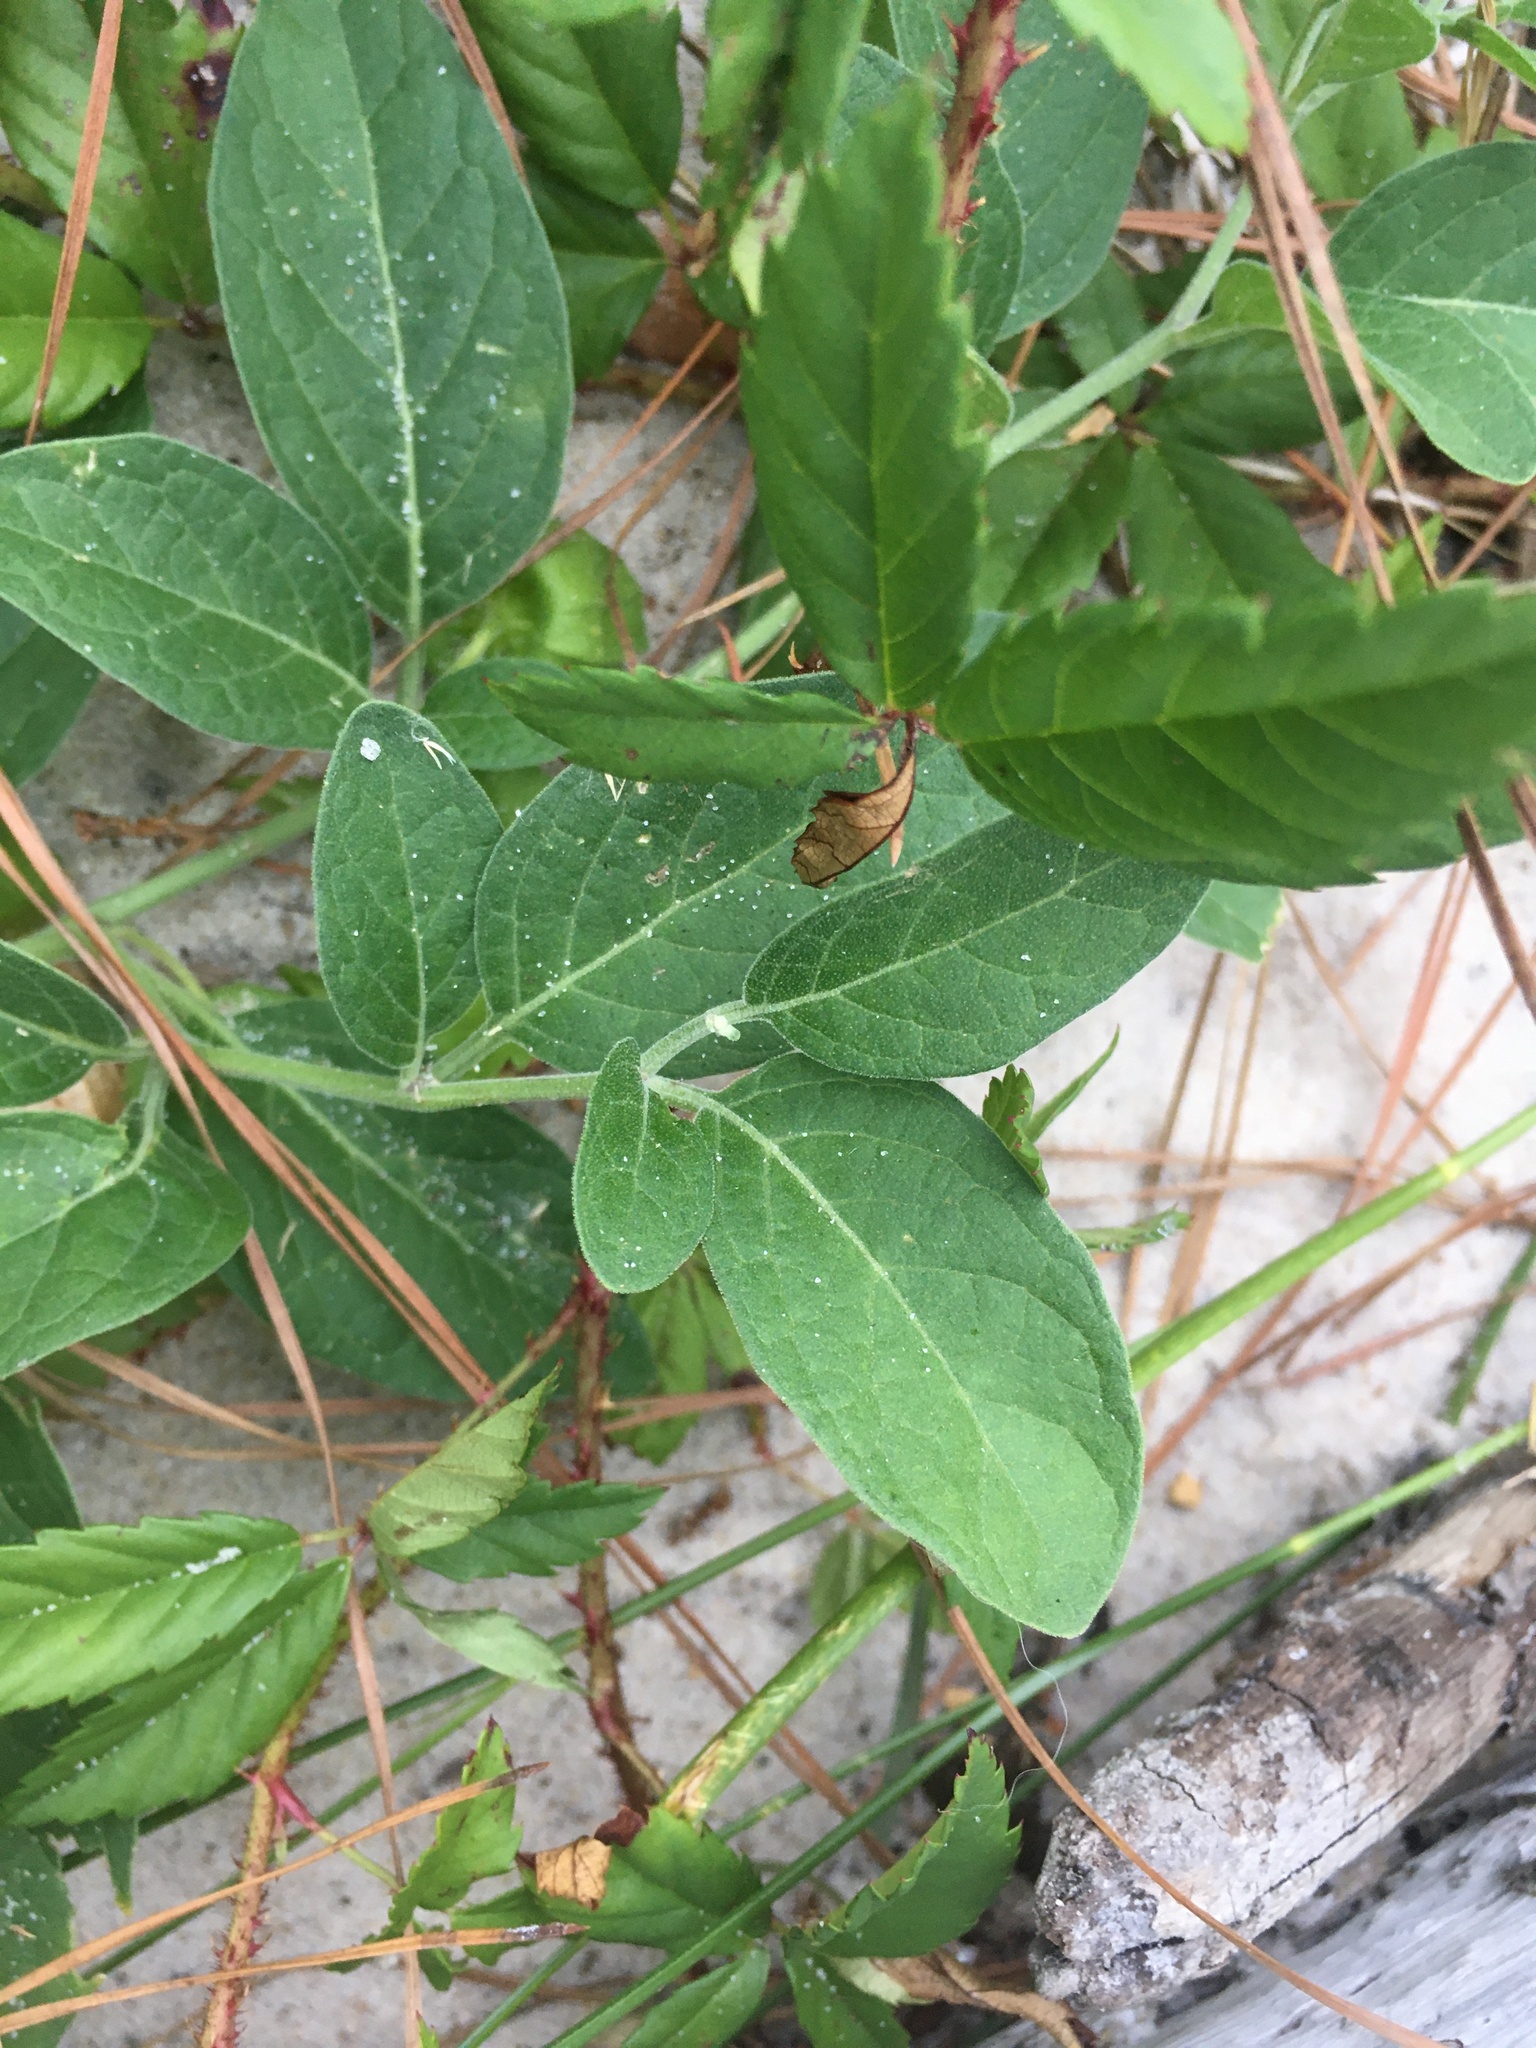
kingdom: Plantae
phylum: Tracheophyta
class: Magnoliopsida
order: Solanales
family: Solanaceae
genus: Physalis
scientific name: Physalis walteri
